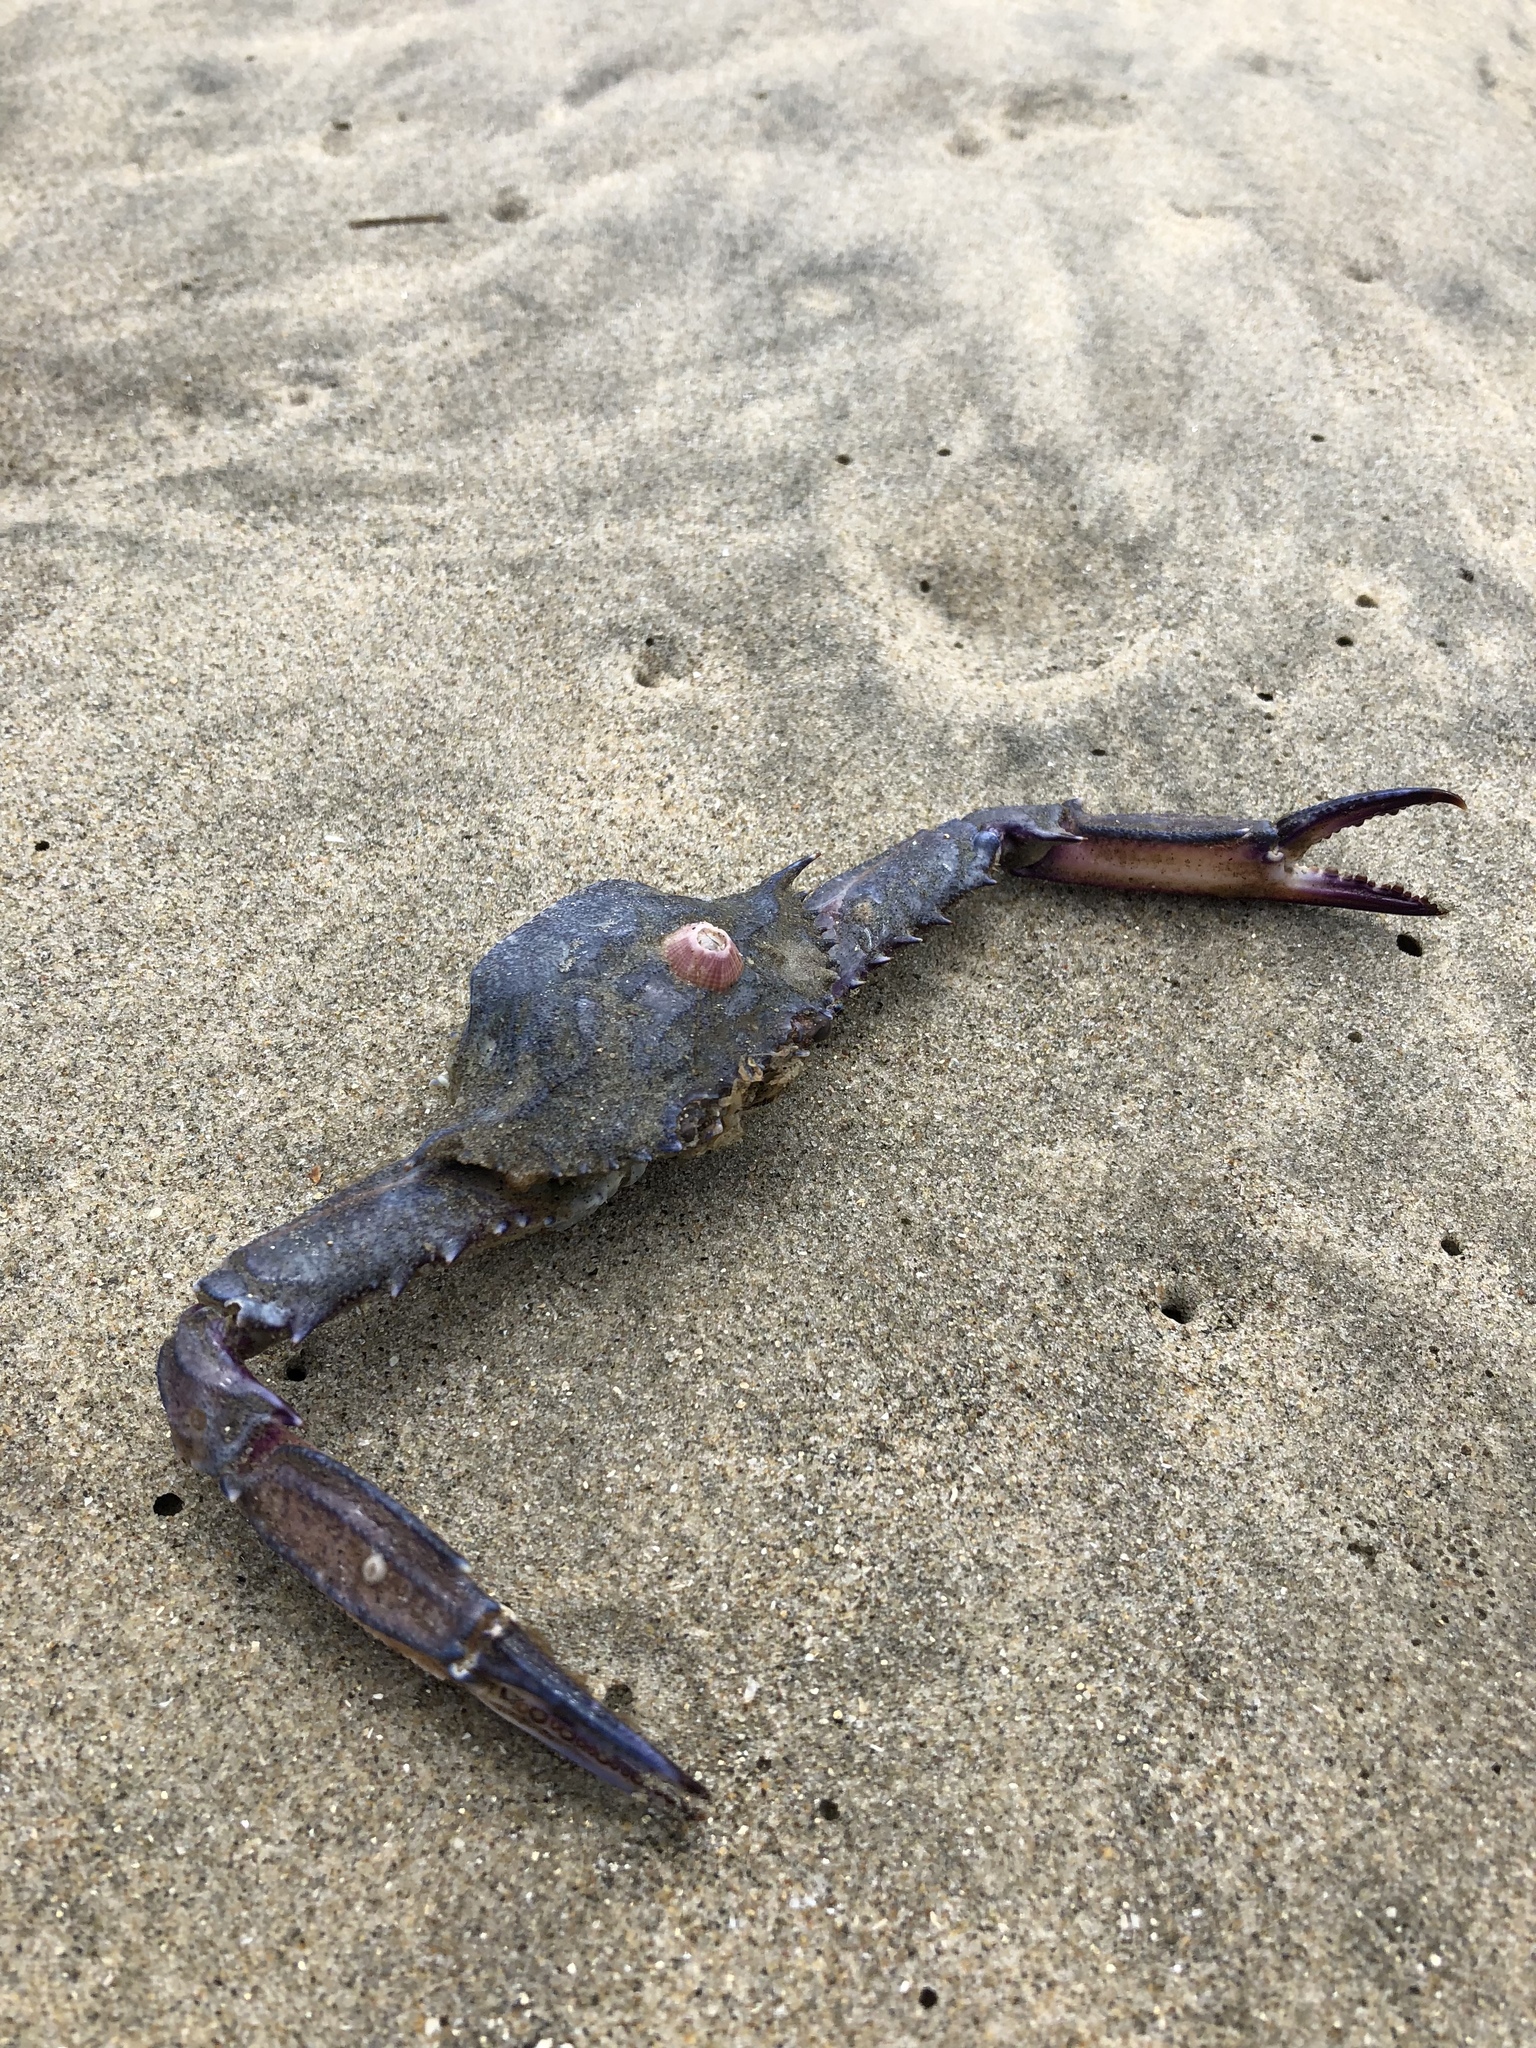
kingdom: Animalia
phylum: Arthropoda
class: Malacostraca
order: Decapoda
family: Portunidae
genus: Achelous
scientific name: Achelous xantusii
